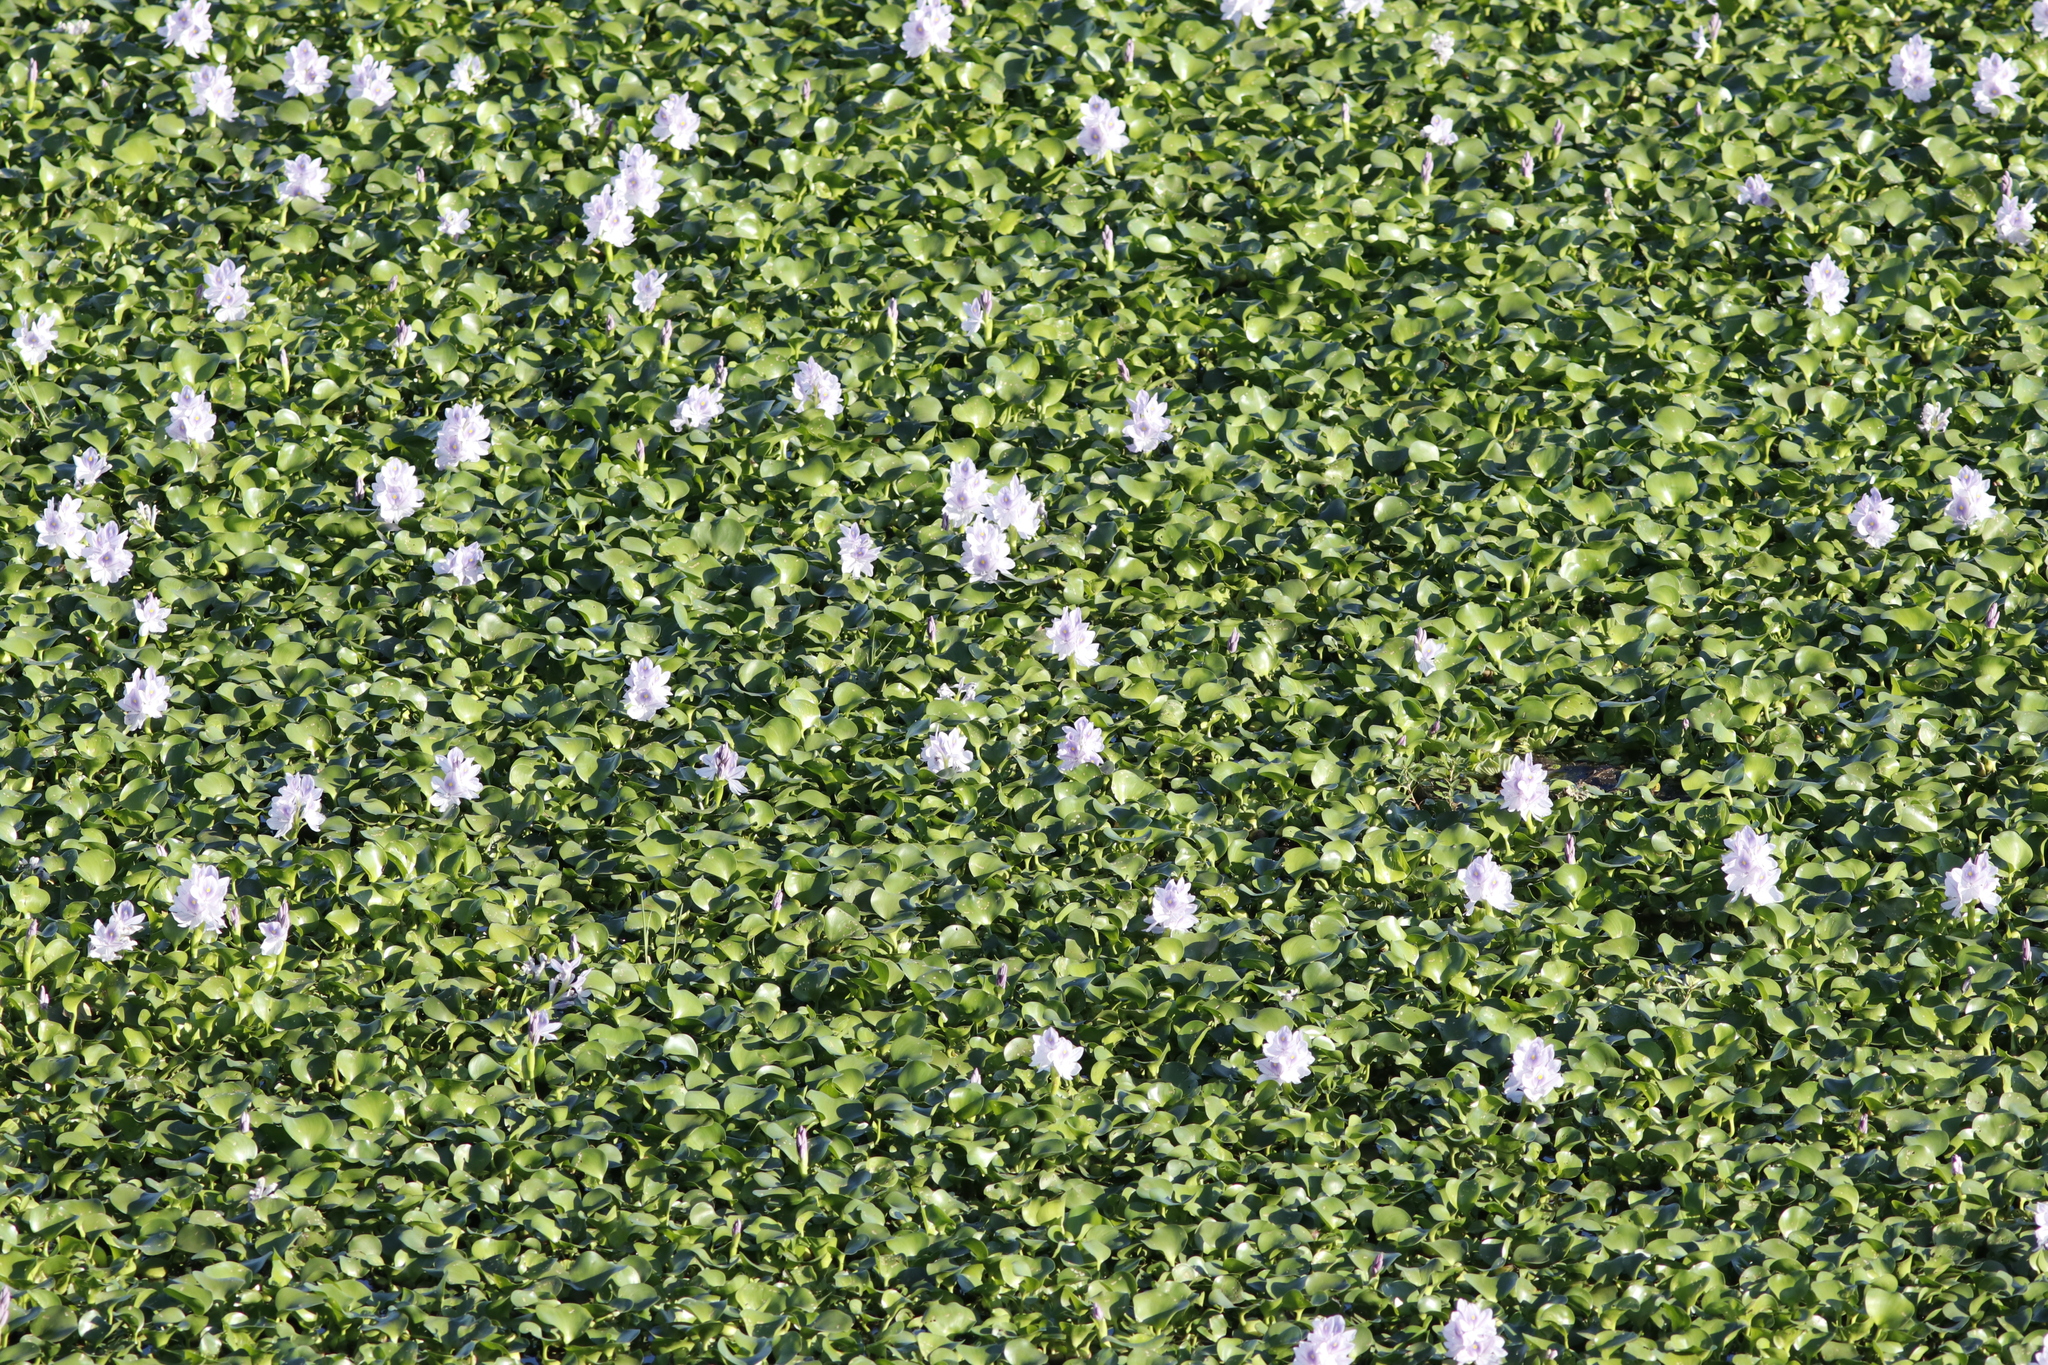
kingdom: Plantae
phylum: Tracheophyta
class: Liliopsida
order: Commelinales
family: Pontederiaceae
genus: Pontederia
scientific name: Pontederia crassipes
